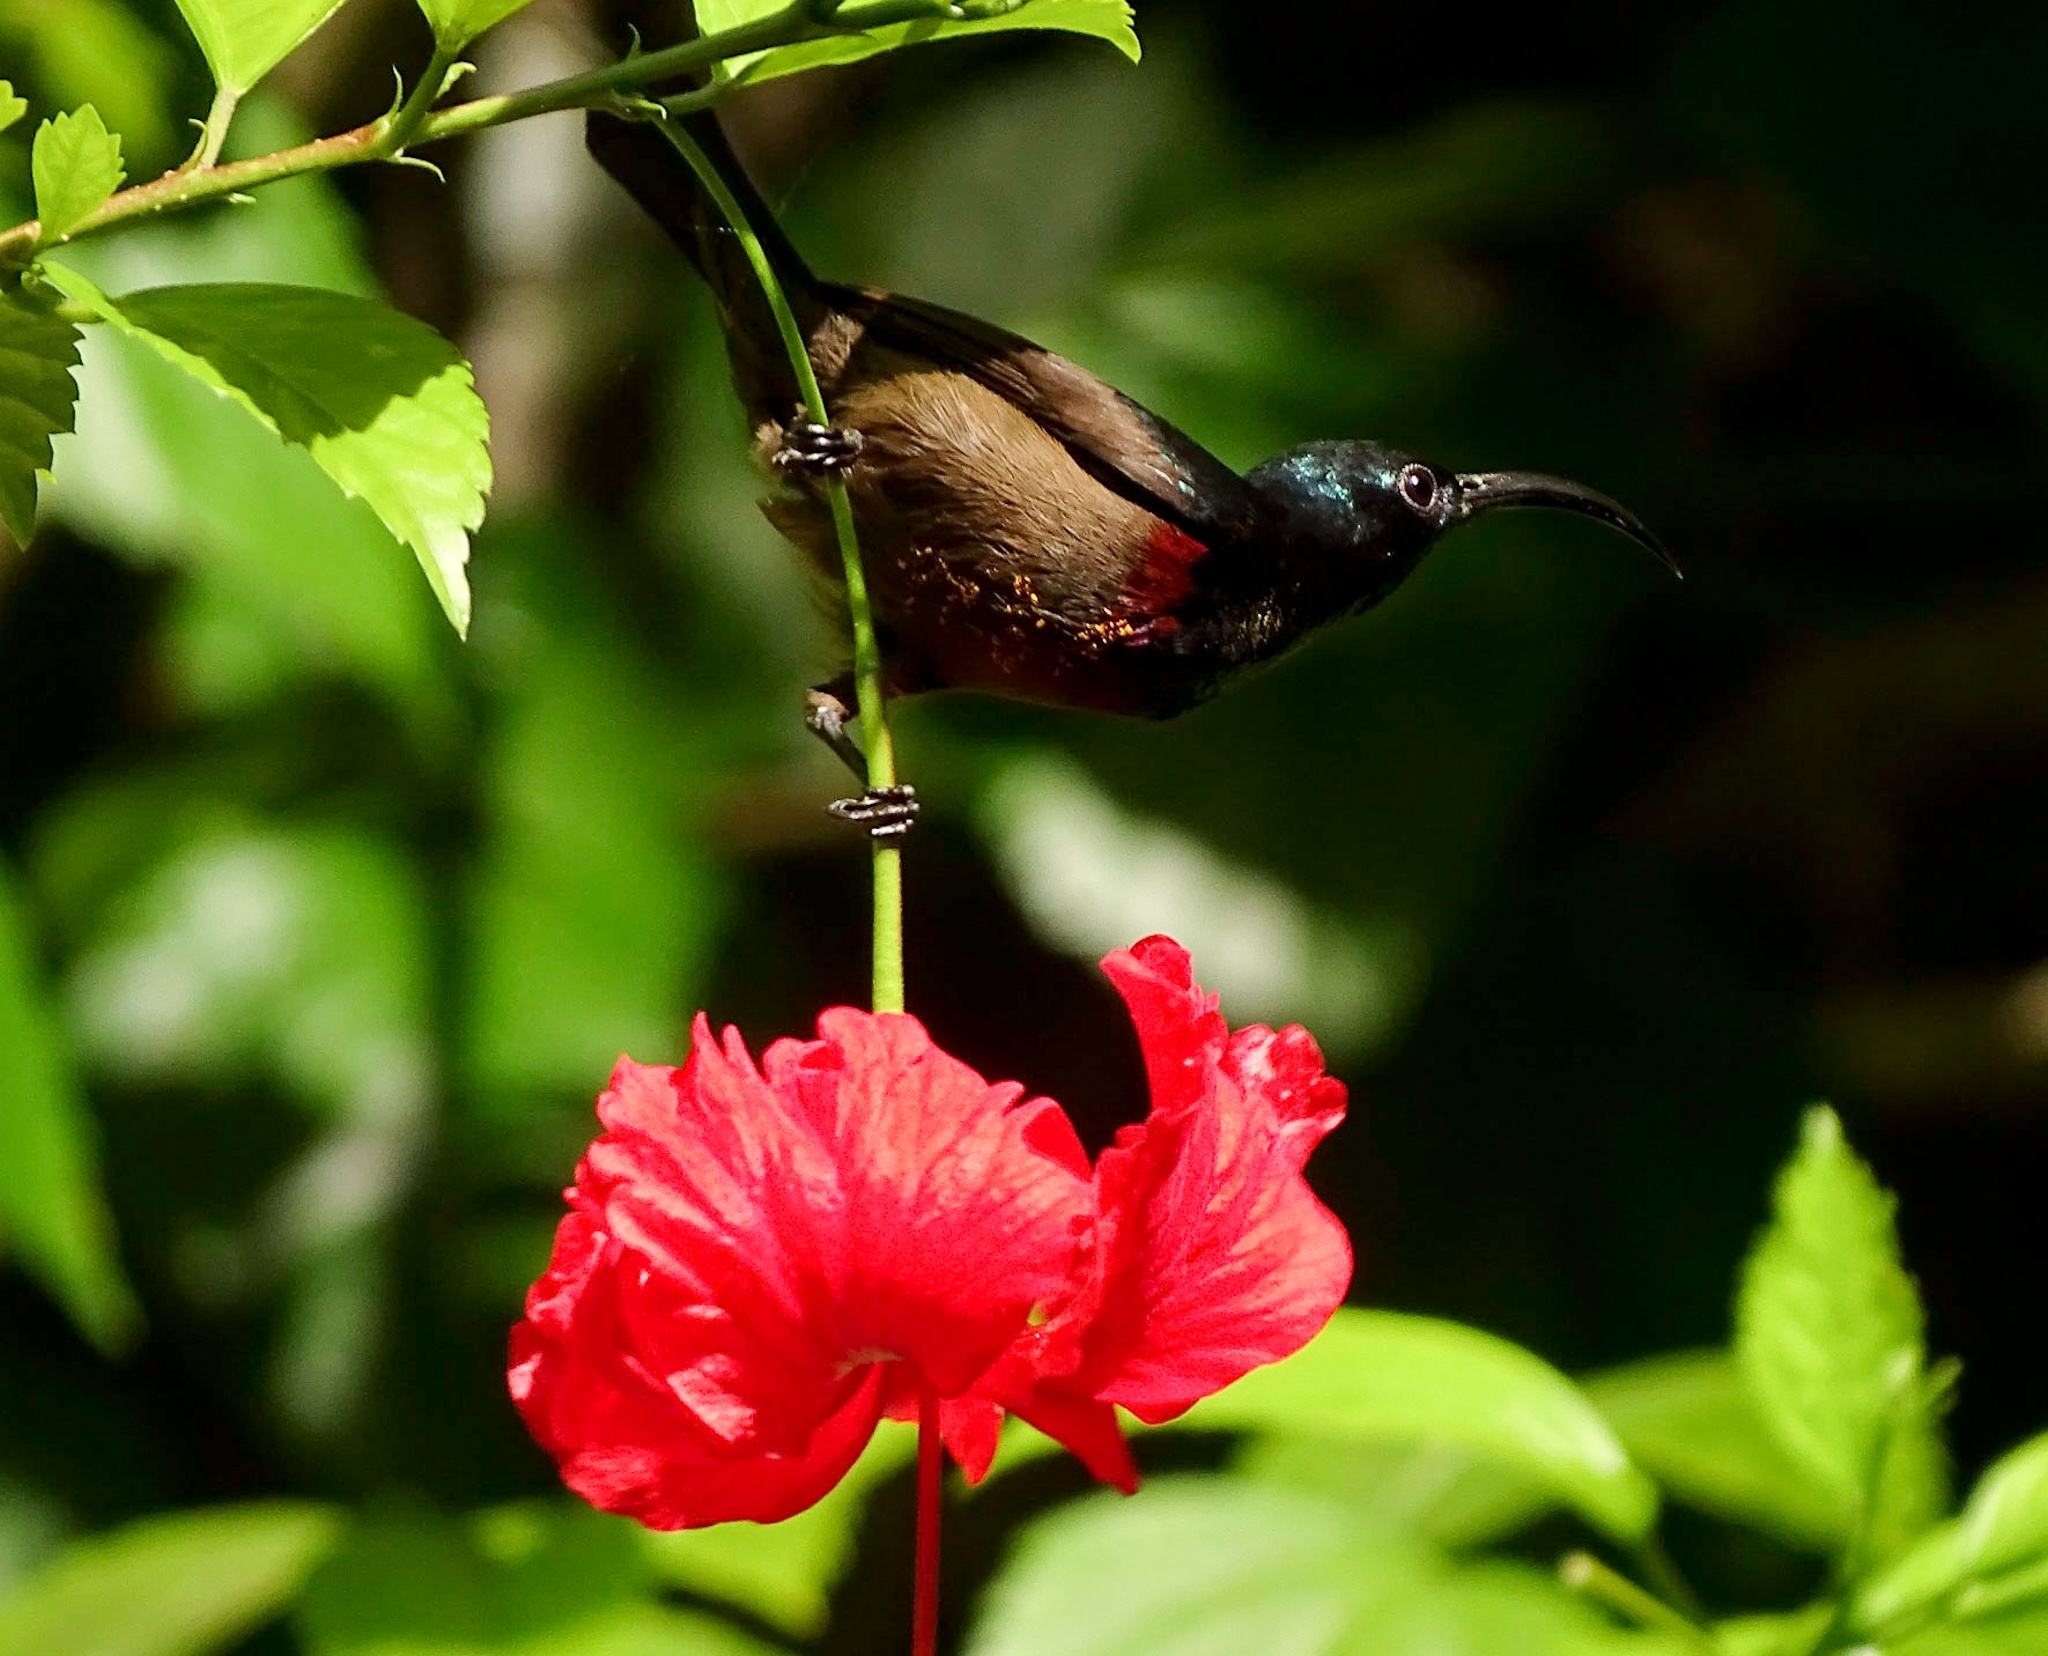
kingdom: Animalia
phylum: Chordata
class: Aves
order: Passeriformes
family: Nectariniidae
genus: Cinnyris
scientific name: Cinnyris lotenius
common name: Loten's sunbird
